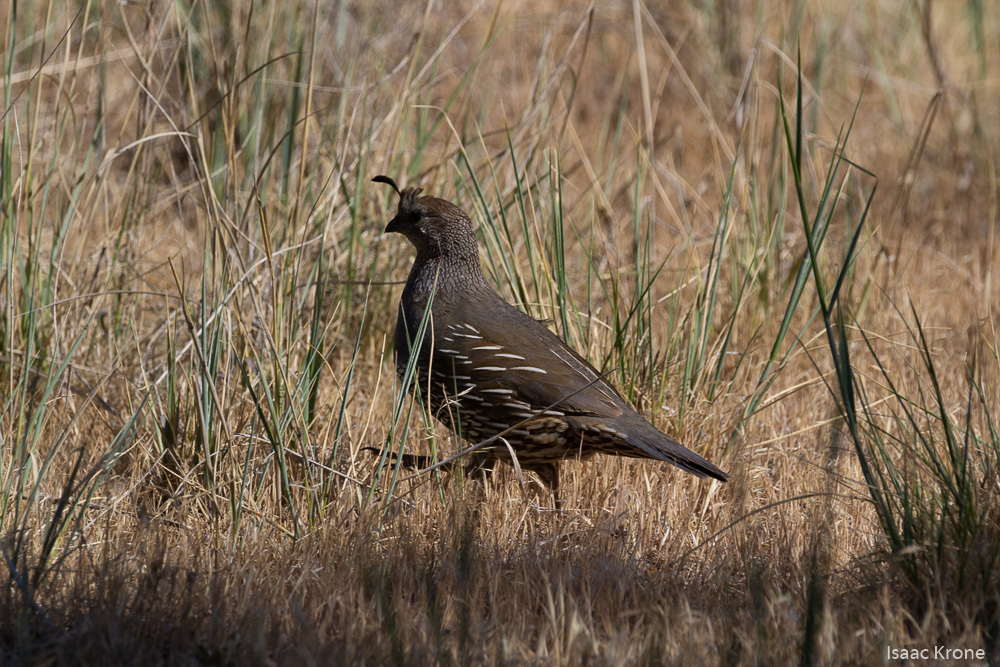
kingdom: Animalia
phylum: Chordata
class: Aves
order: Galliformes
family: Odontophoridae
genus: Callipepla
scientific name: Callipepla californica
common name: California quail
